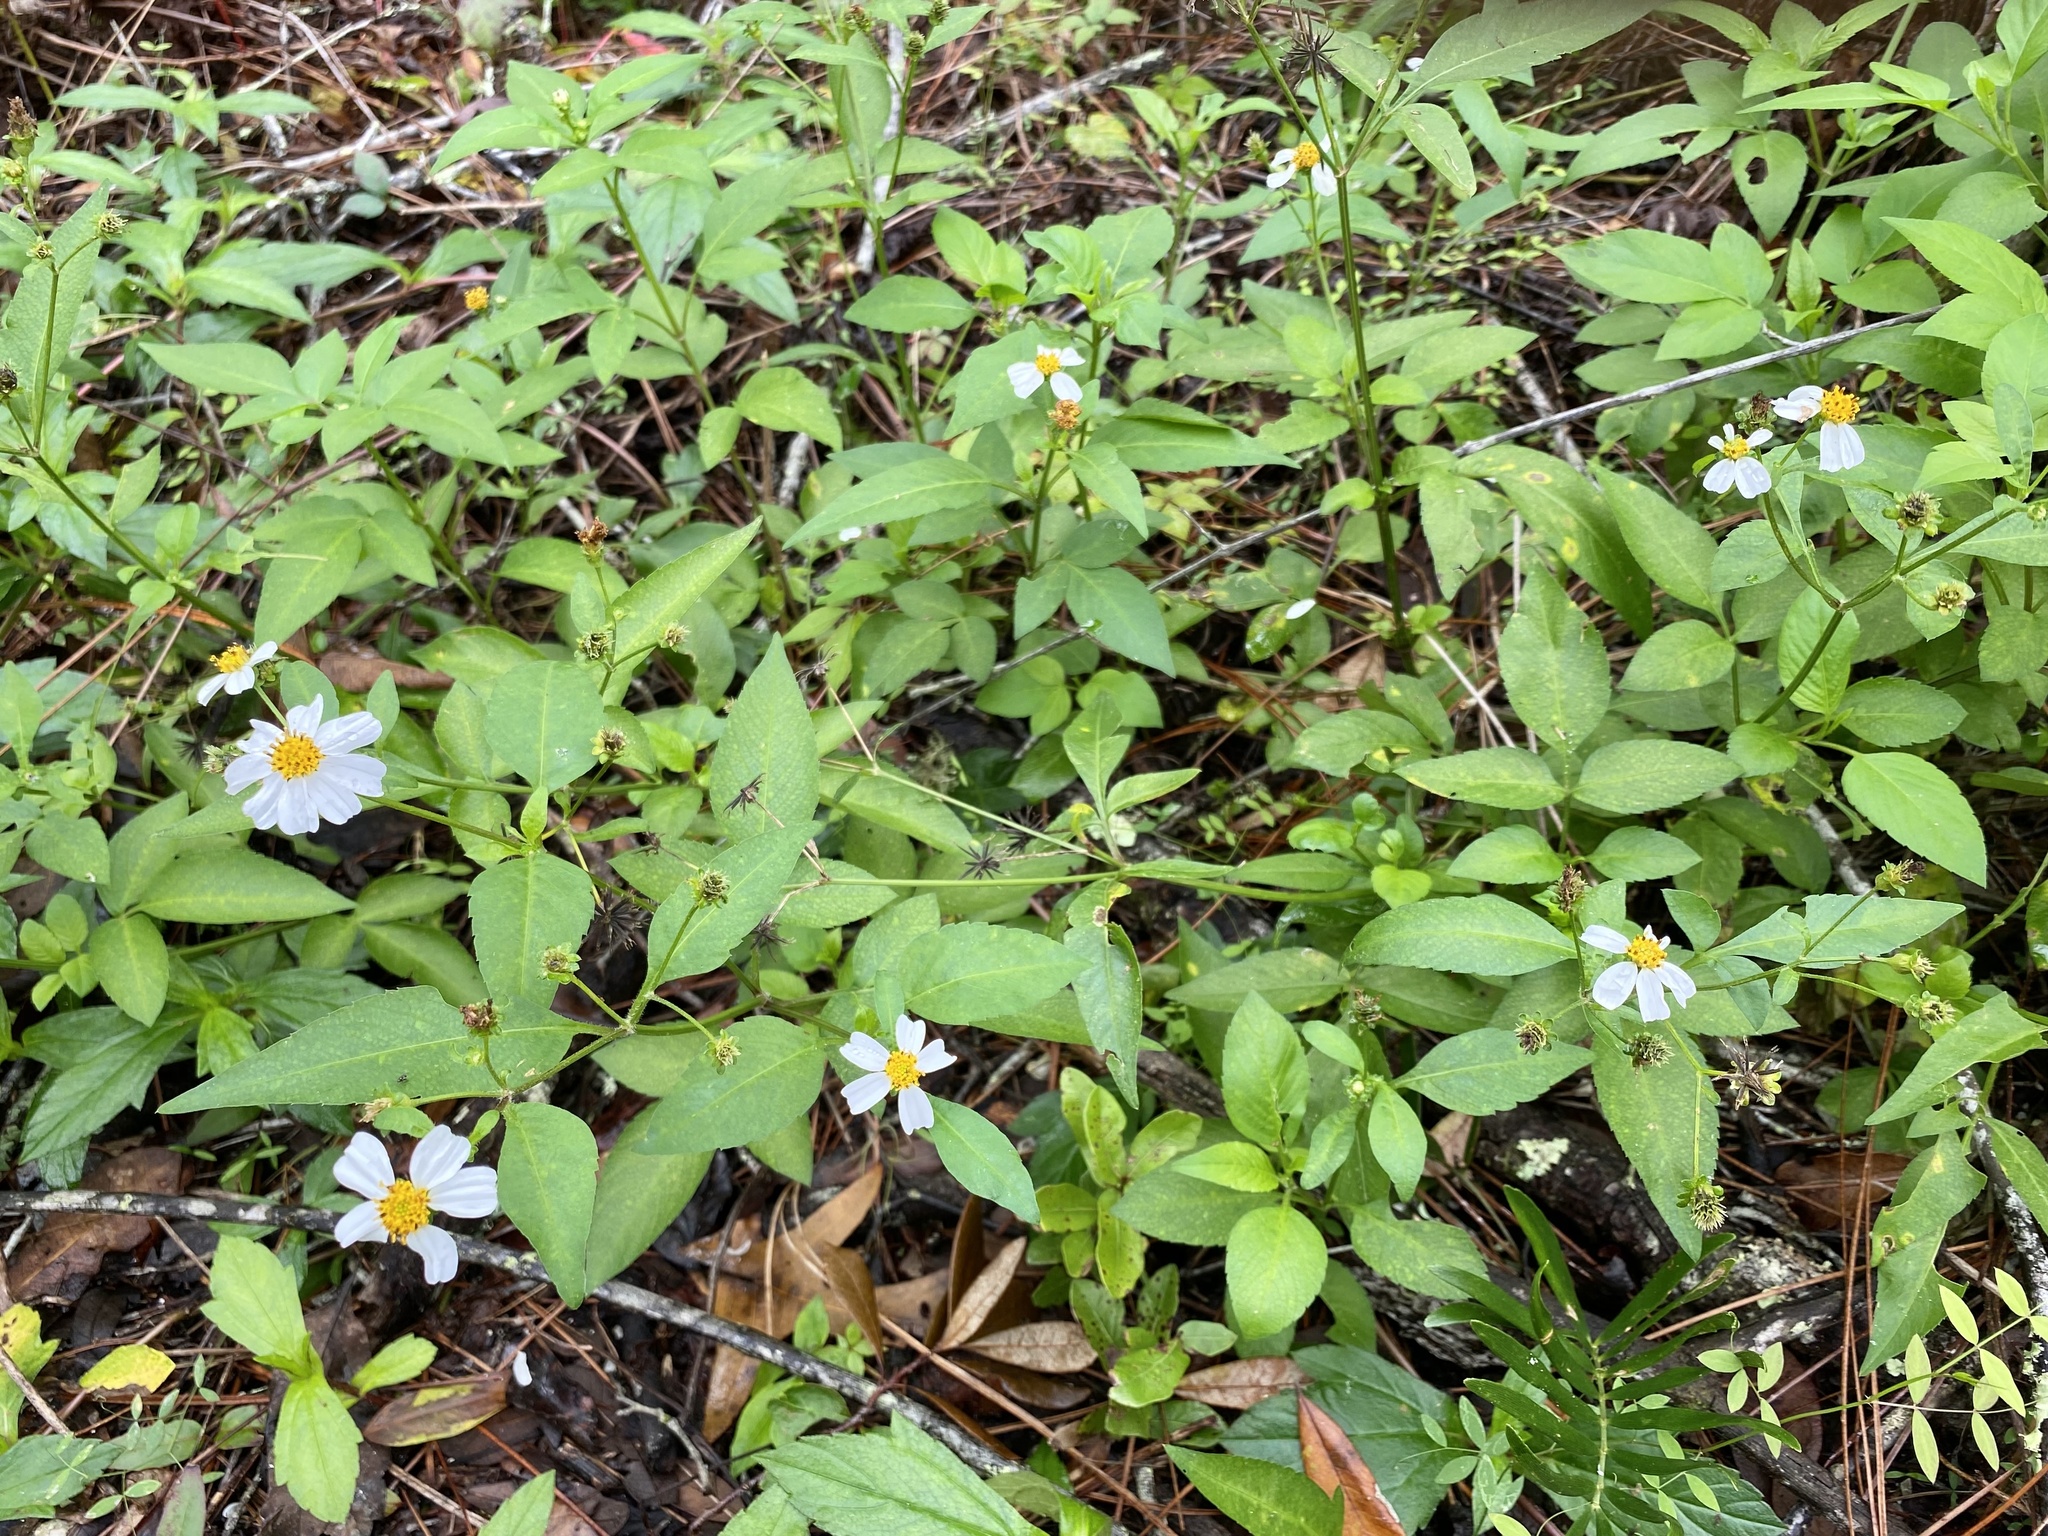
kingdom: Plantae
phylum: Tracheophyta
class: Magnoliopsida
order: Asterales
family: Asteraceae
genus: Bidens
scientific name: Bidens alba
